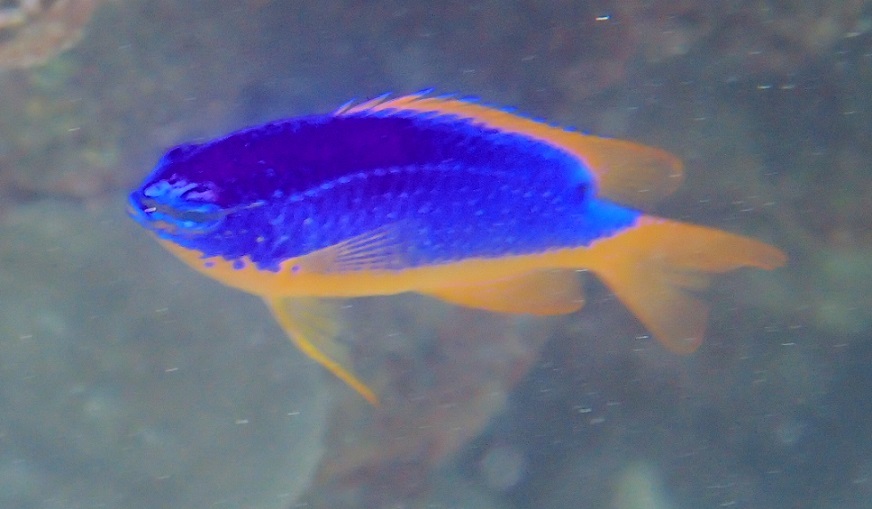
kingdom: Animalia
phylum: Chordata
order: Perciformes
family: Pomacentridae
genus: Chrysiptera
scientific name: Chrysiptera taupou
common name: Fiji damsel
